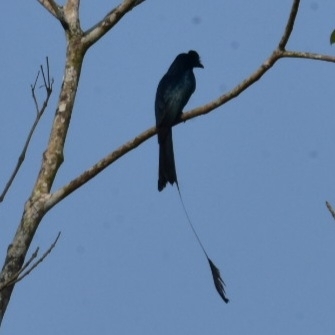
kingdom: Animalia
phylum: Chordata
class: Aves
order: Passeriformes
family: Dicruridae
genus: Dicrurus
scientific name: Dicrurus paradiseus
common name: Greater racket-tailed drongo
